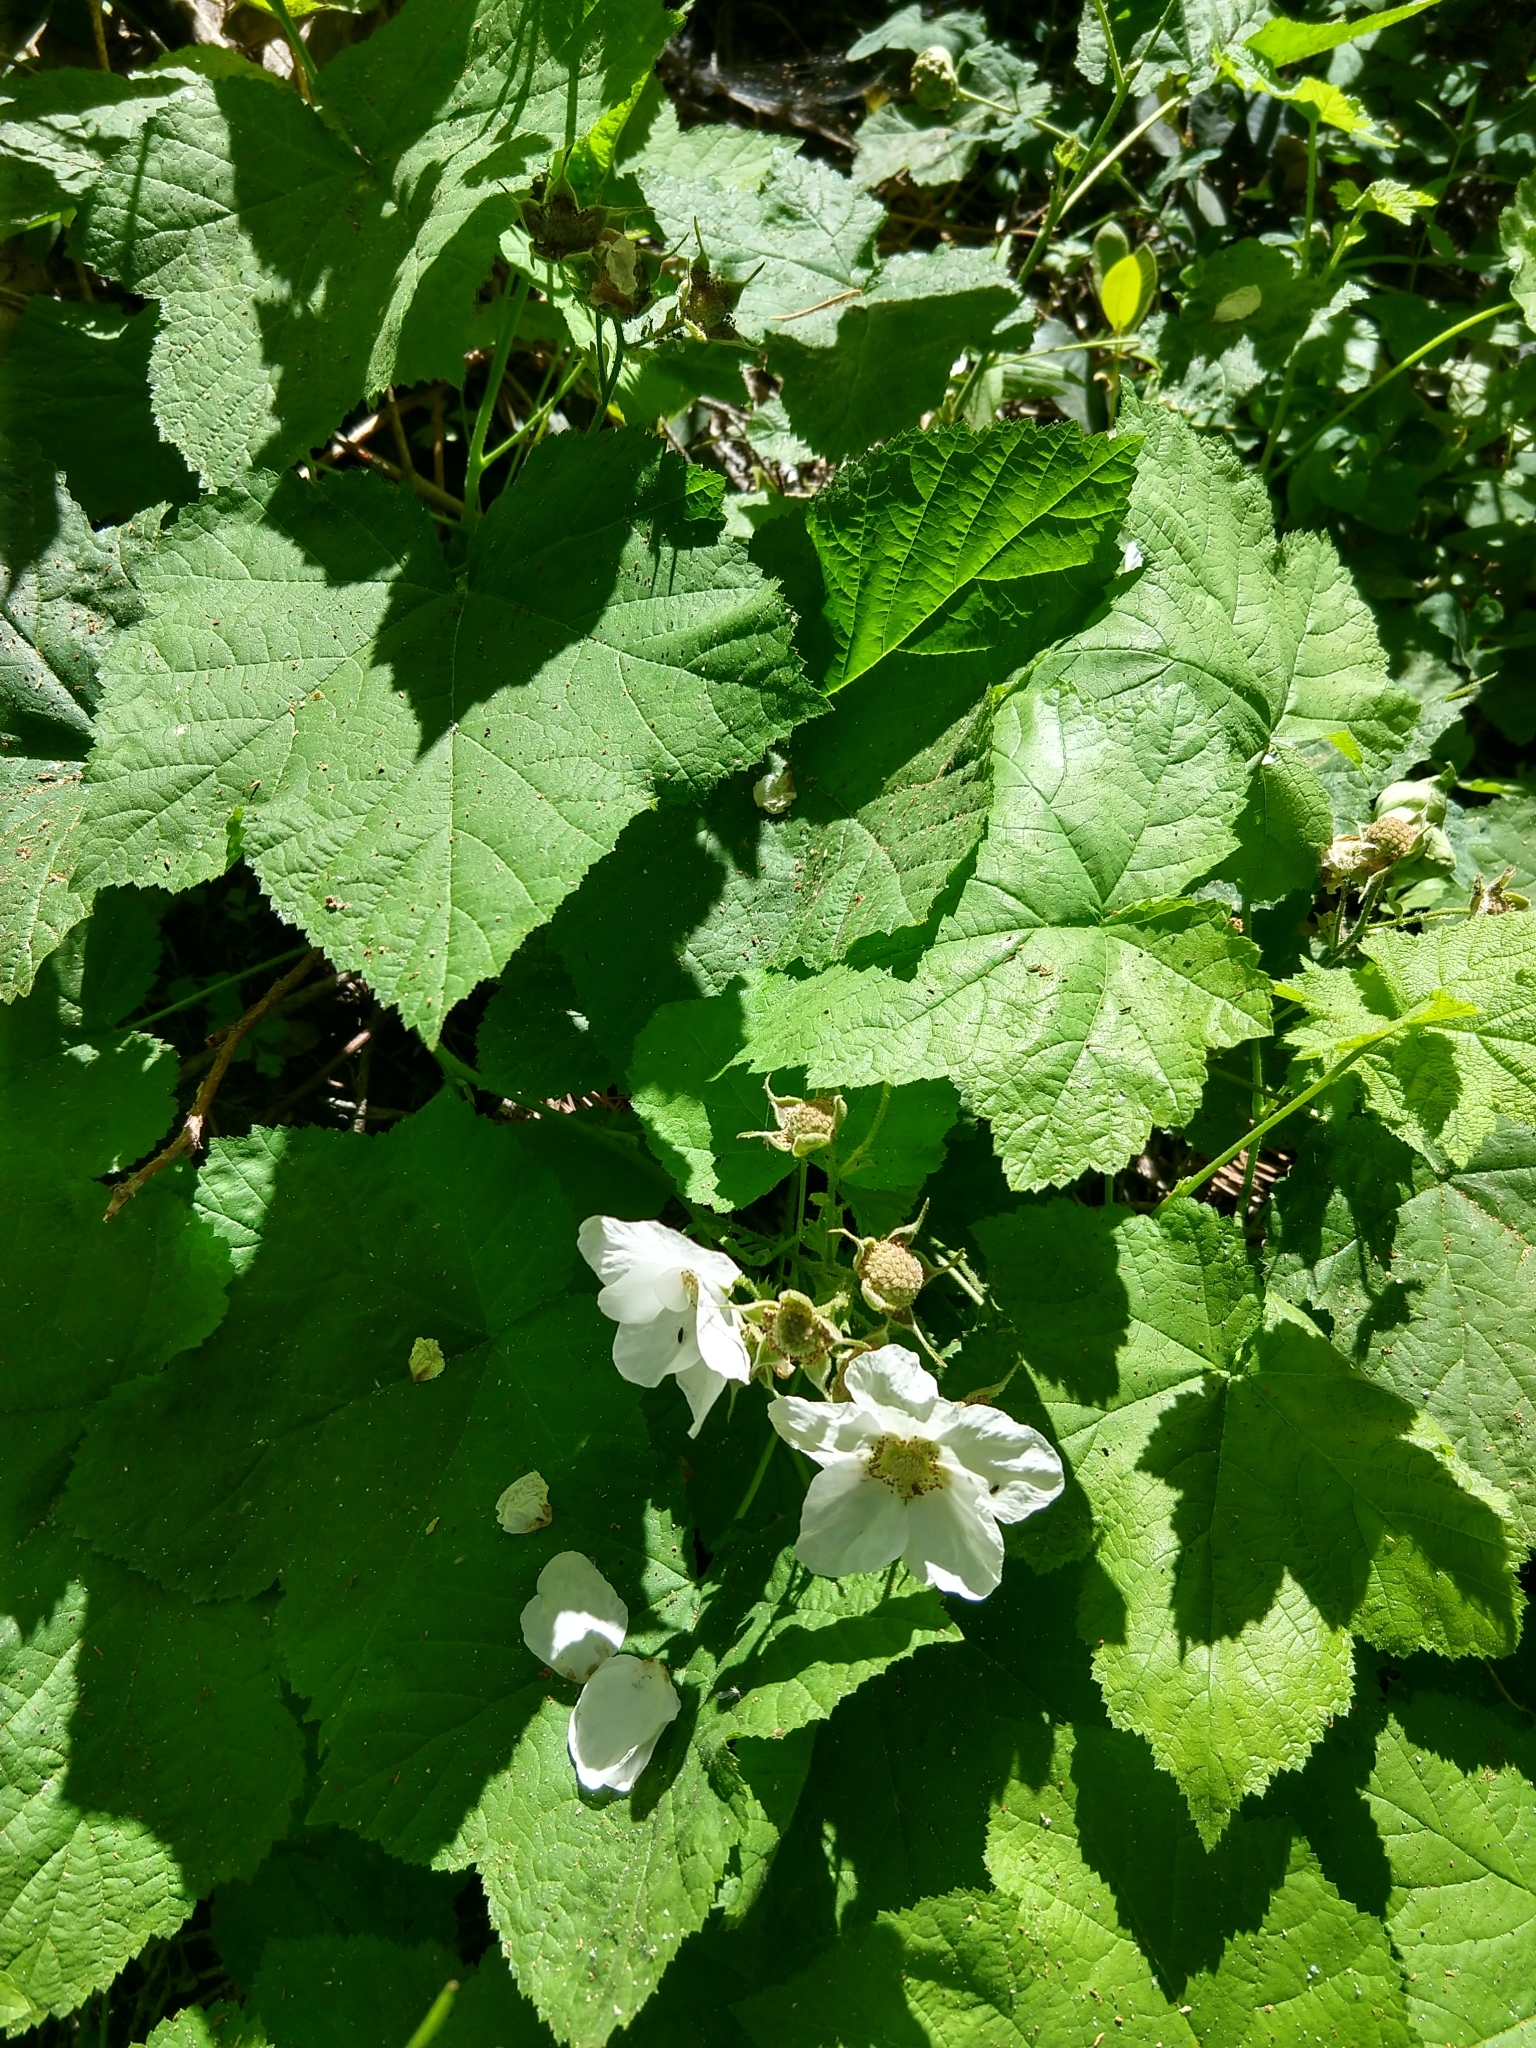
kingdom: Plantae
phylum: Tracheophyta
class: Magnoliopsida
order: Rosales
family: Rosaceae
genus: Rubus
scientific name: Rubus parviflorus
